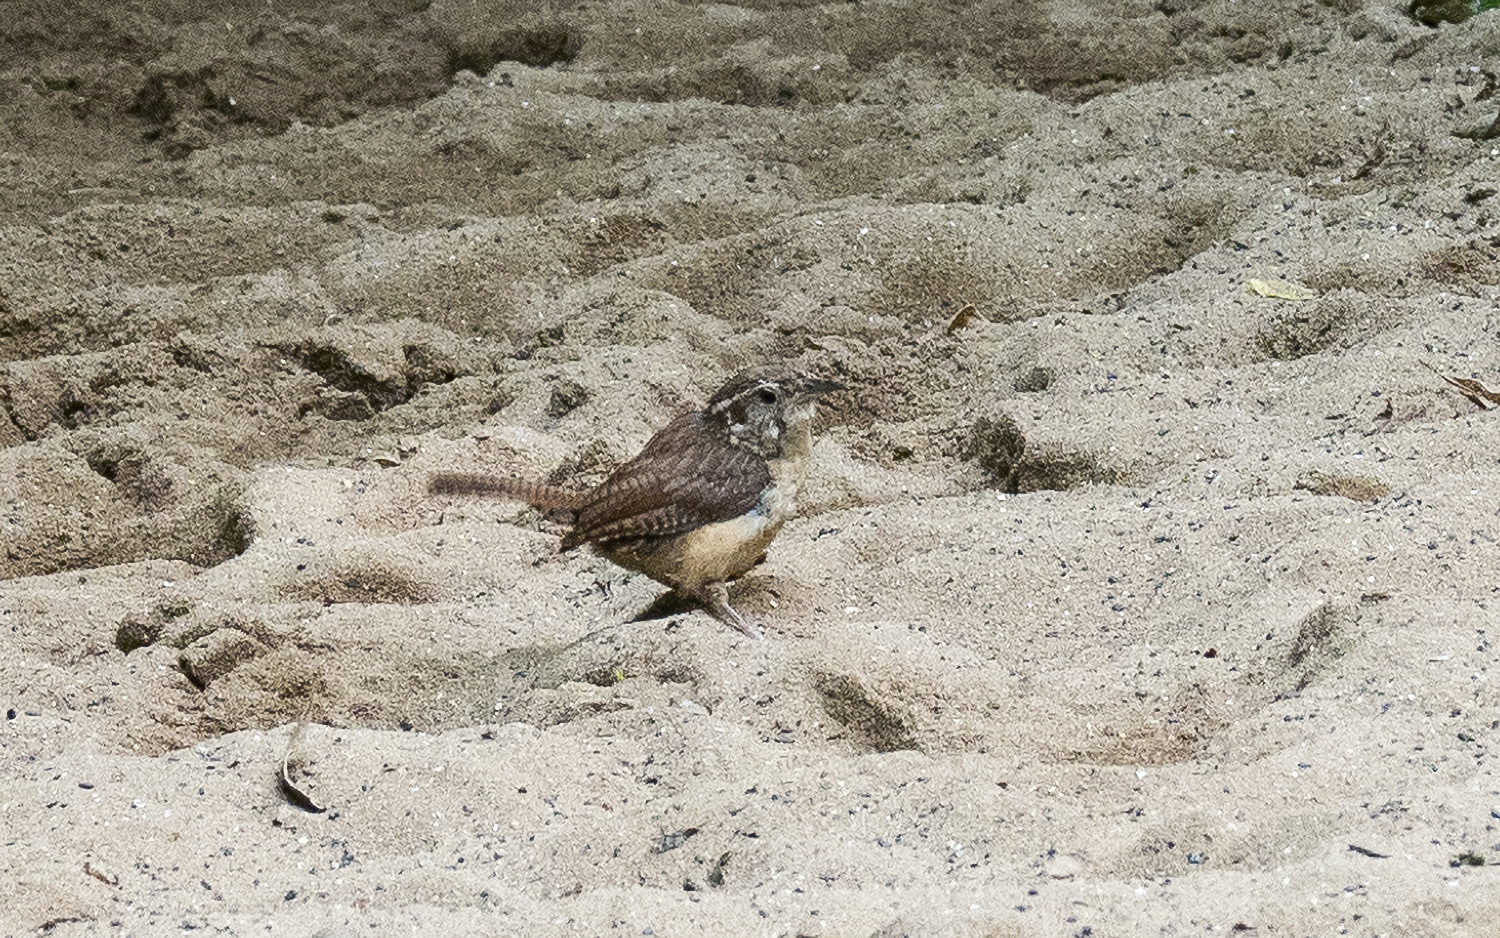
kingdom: Animalia
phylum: Chordata
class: Aves
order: Passeriformes
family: Troglodytidae
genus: Thryothorus
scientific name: Thryothorus ludovicianus
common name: Carolina wren
